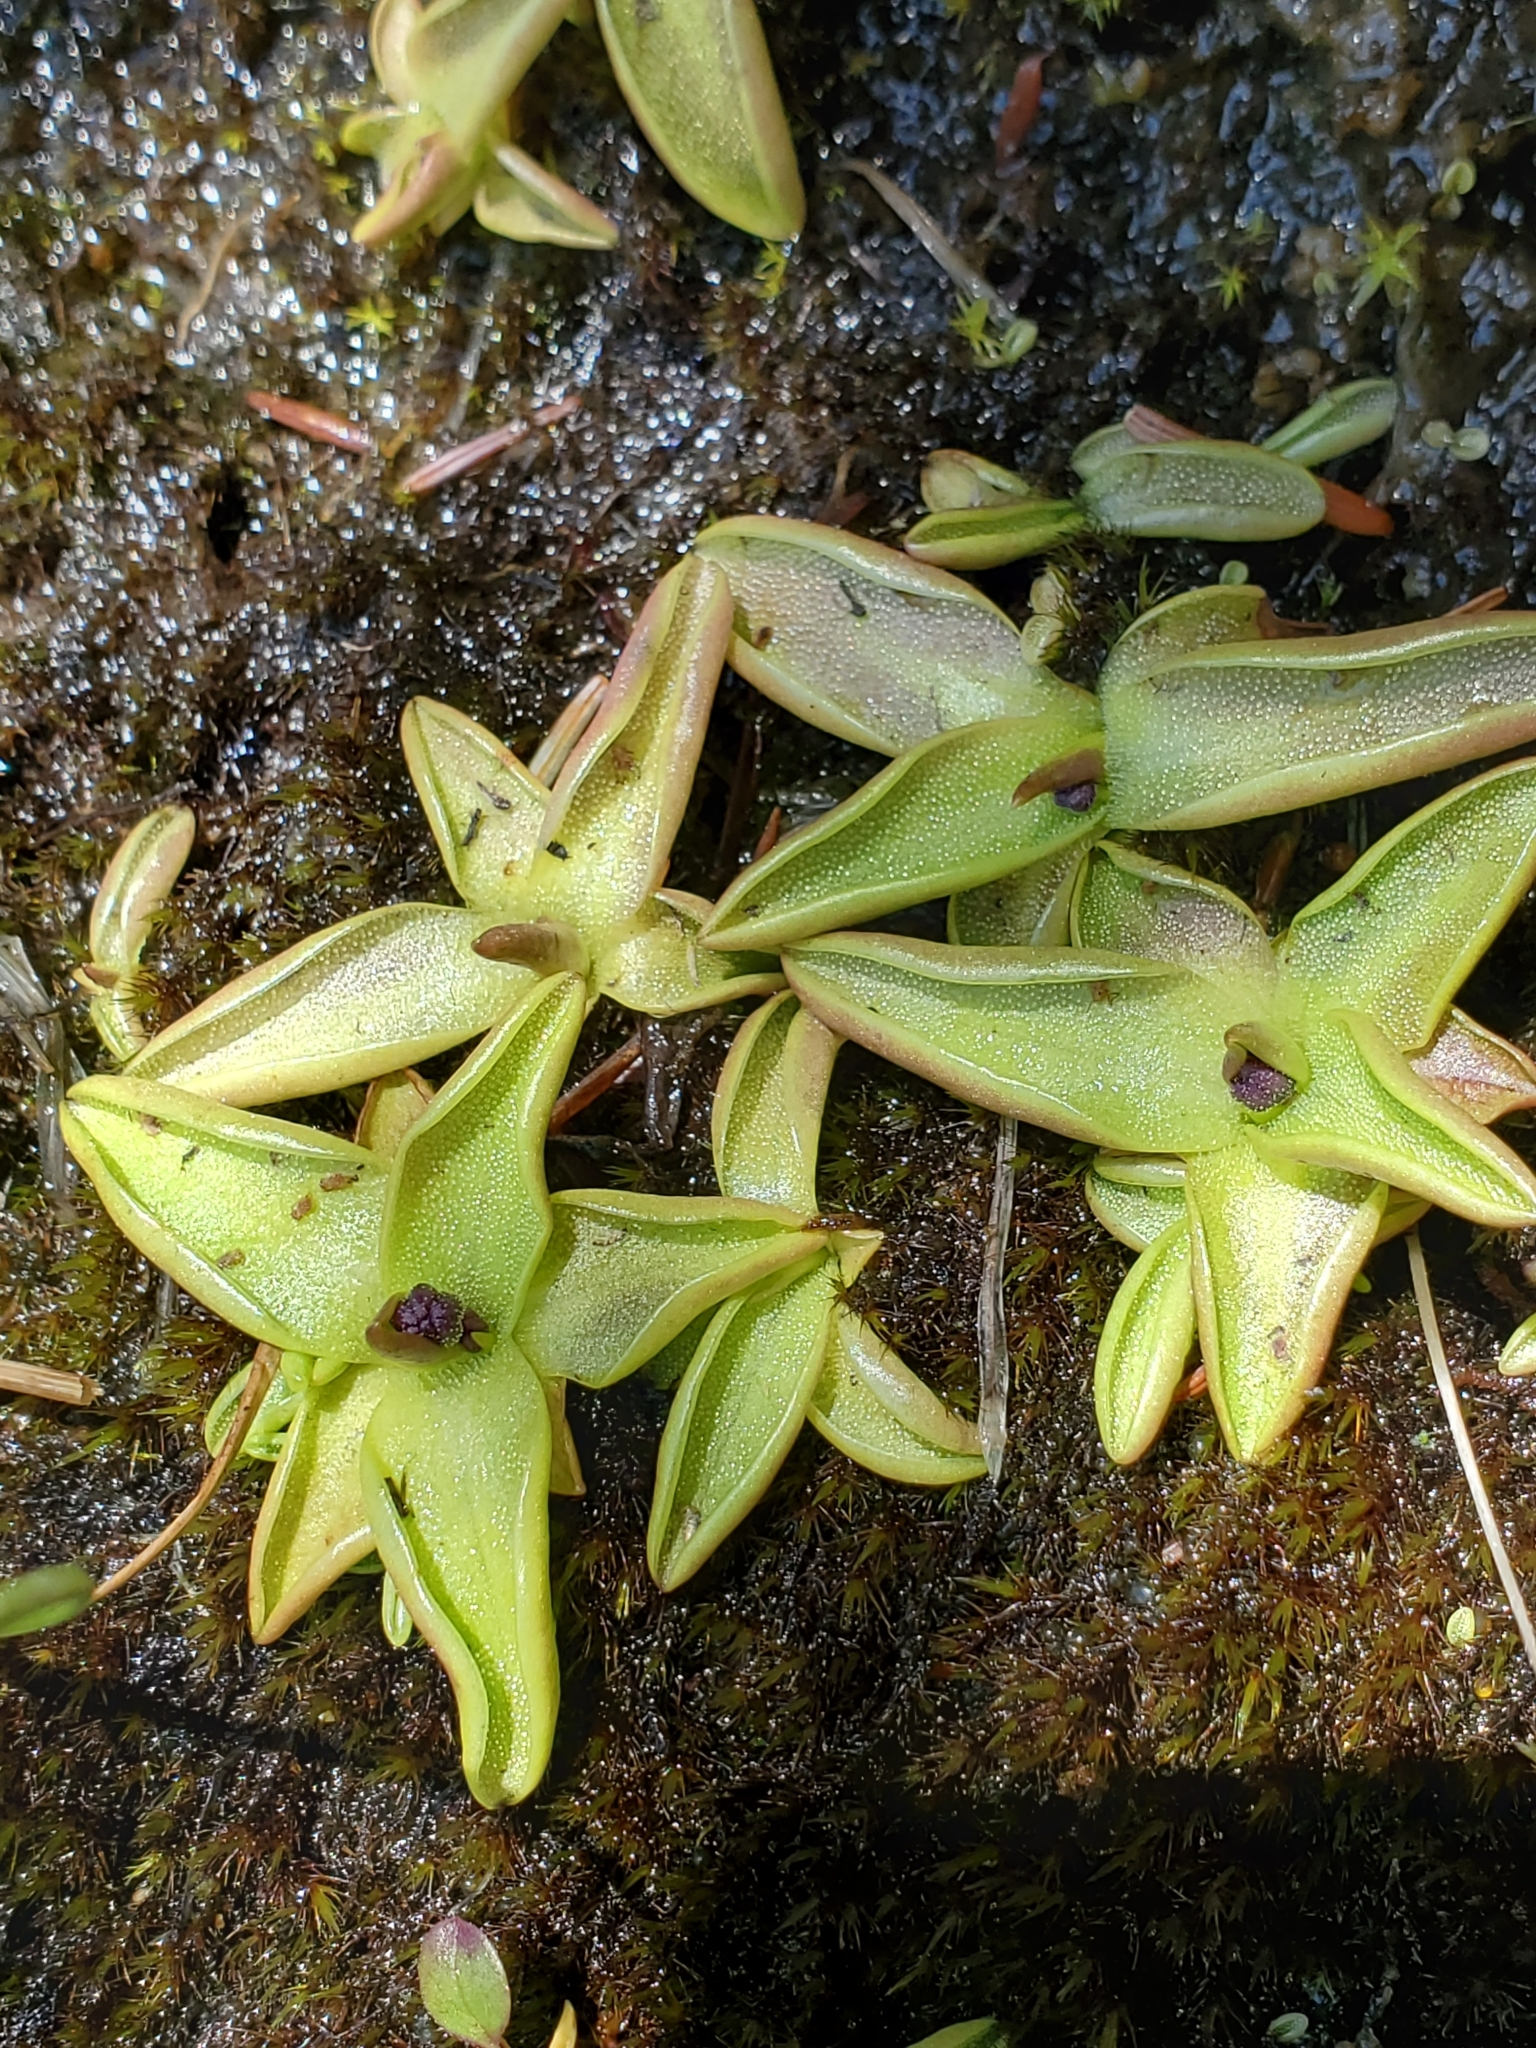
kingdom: Plantae
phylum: Tracheophyta
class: Magnoliopsida
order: Lamiales
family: Lentibulariaceae
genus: Pinguicula
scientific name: Pinguicula macroceras
